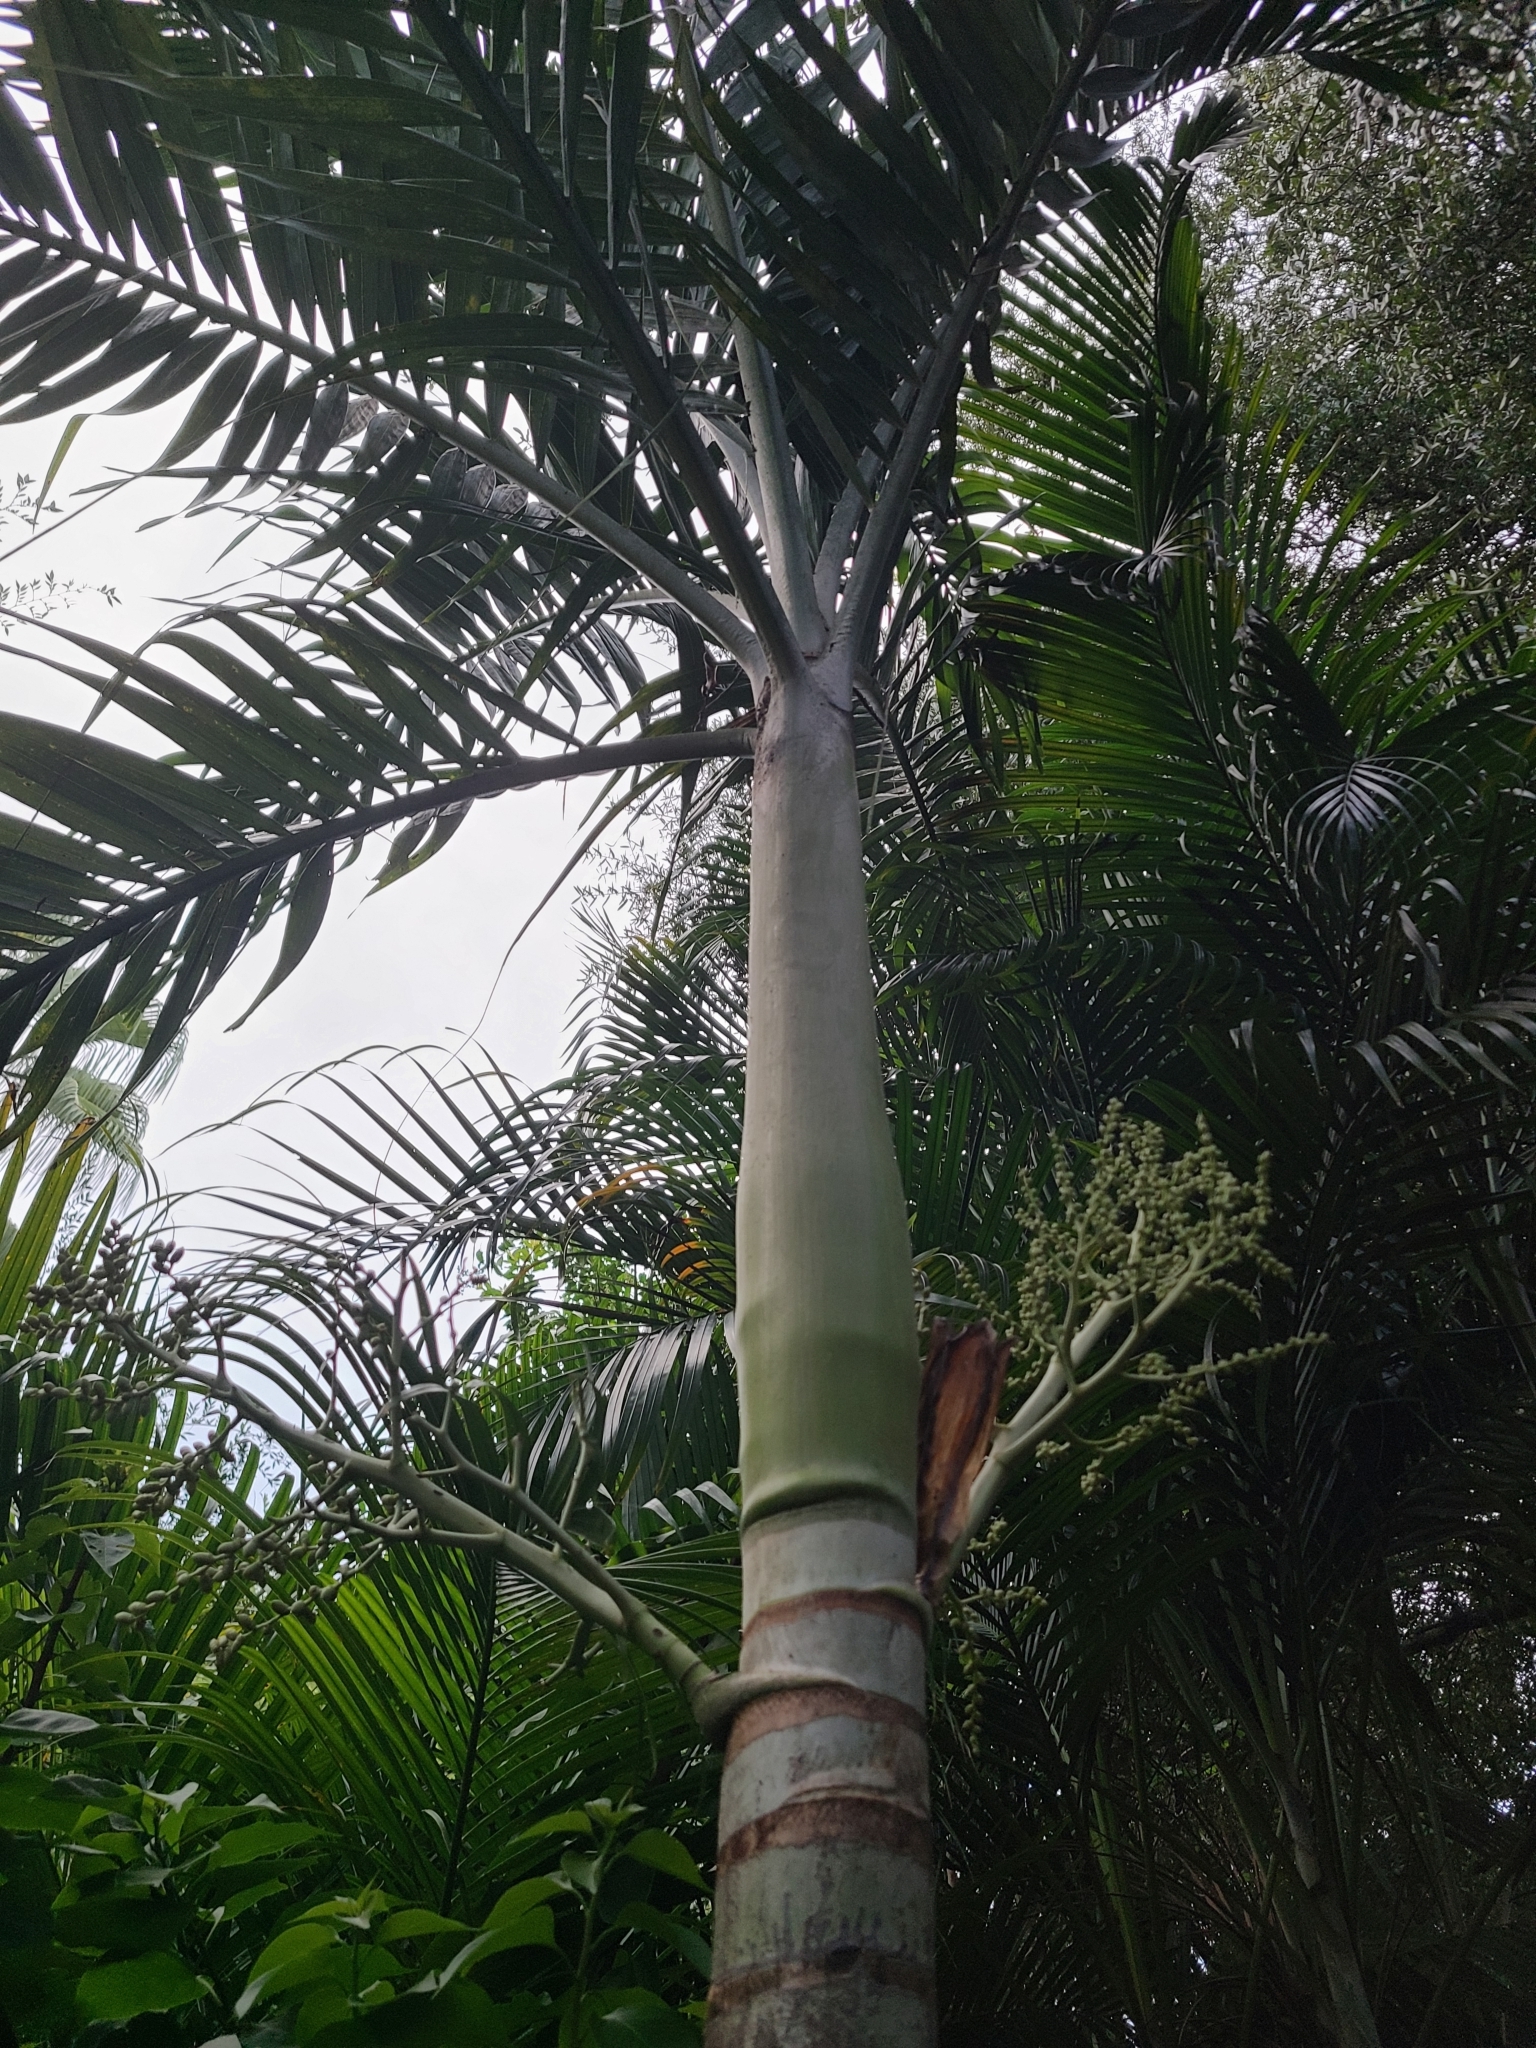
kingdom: Plantae
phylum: Tracheophyta
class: Liliopsida
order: Arecales
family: Arecaceae
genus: Archontophoenix
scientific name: Archontophoenix cunninghamiana
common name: Piccabeen bangalow palm
